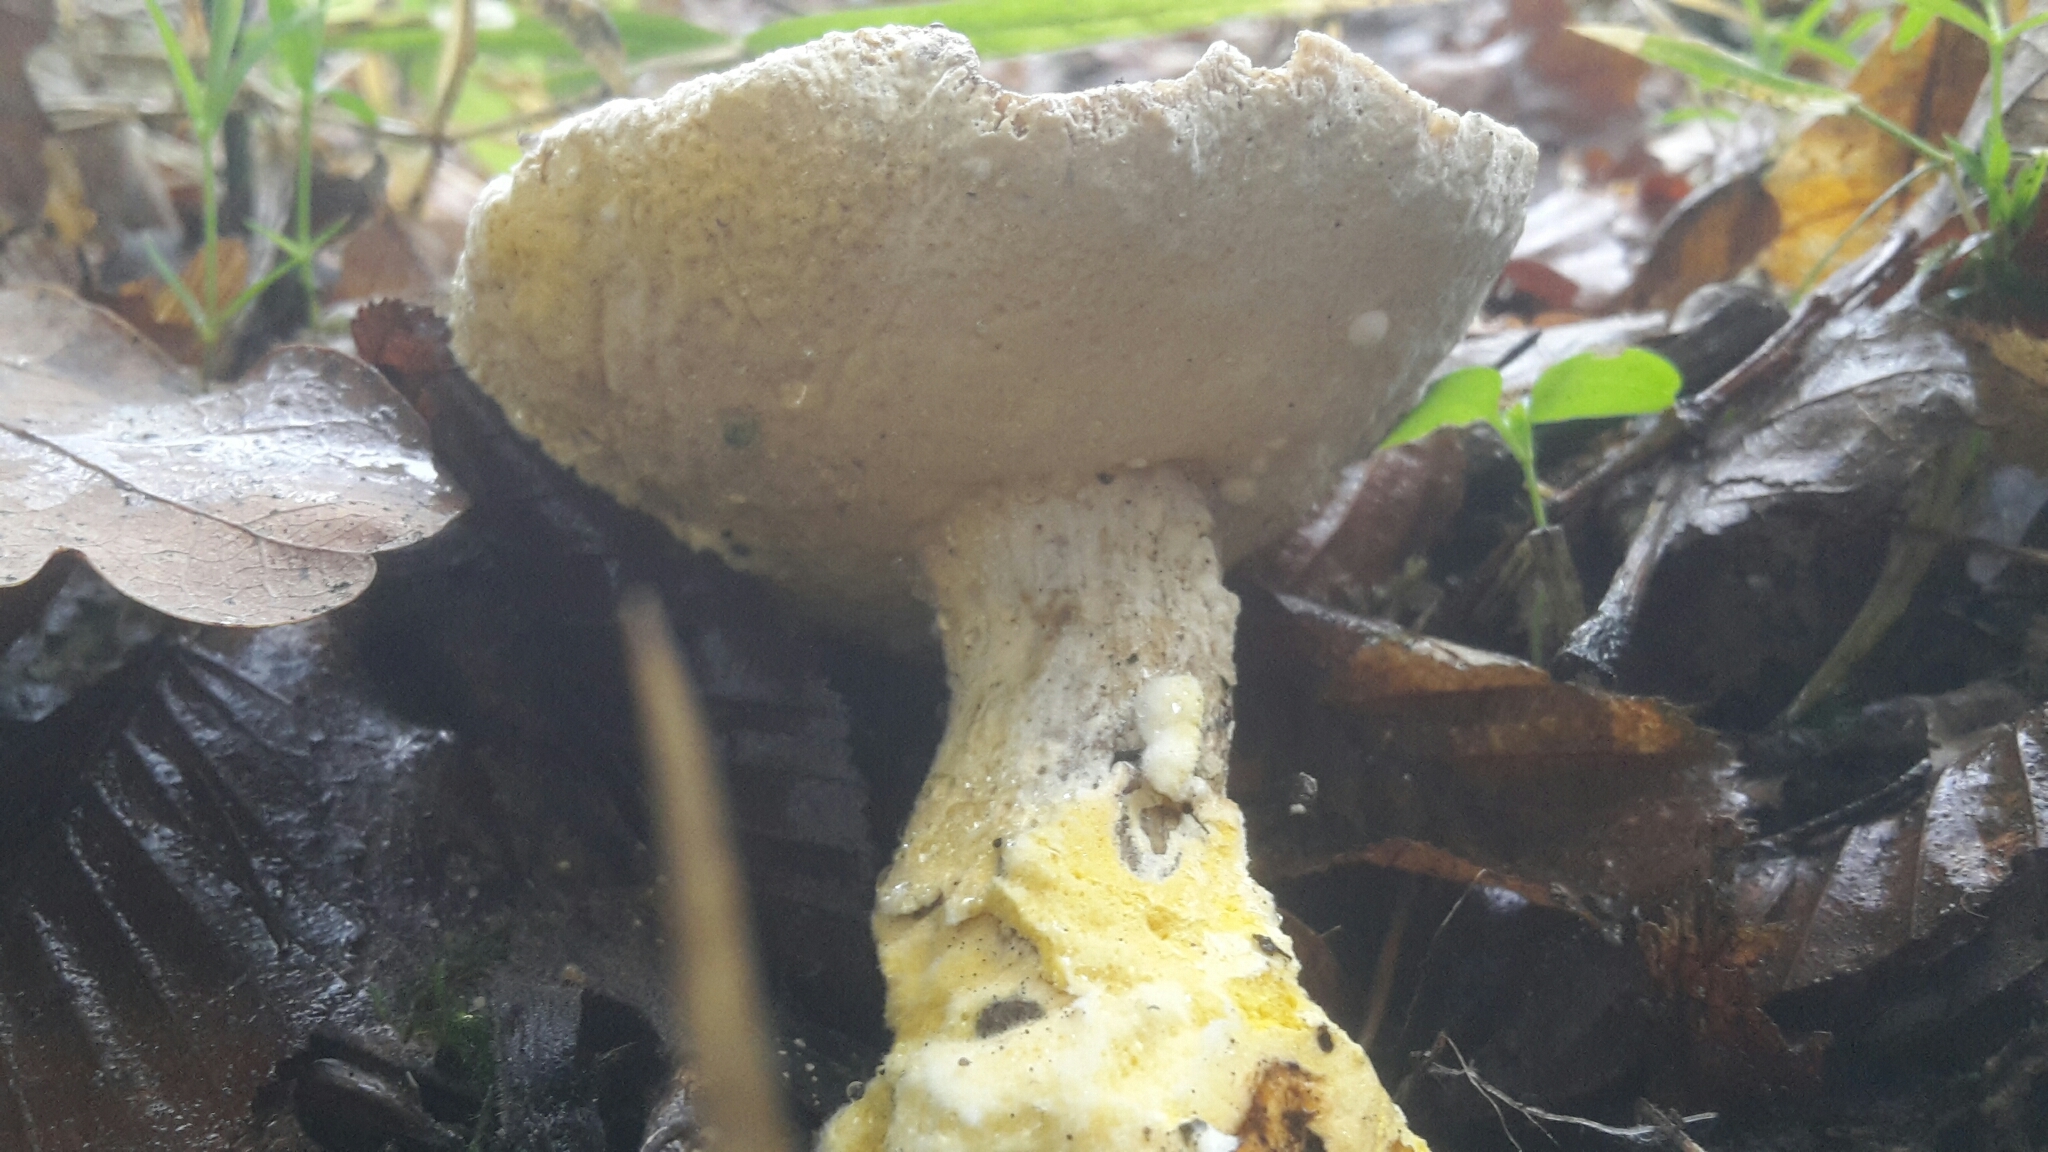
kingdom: Fungi
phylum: Ascomycota
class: Sordariomycetes
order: Hypocreales
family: Hypocreaceae
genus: Hypomyces
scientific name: Hypomyces chrysospermus
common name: Bolete mould
